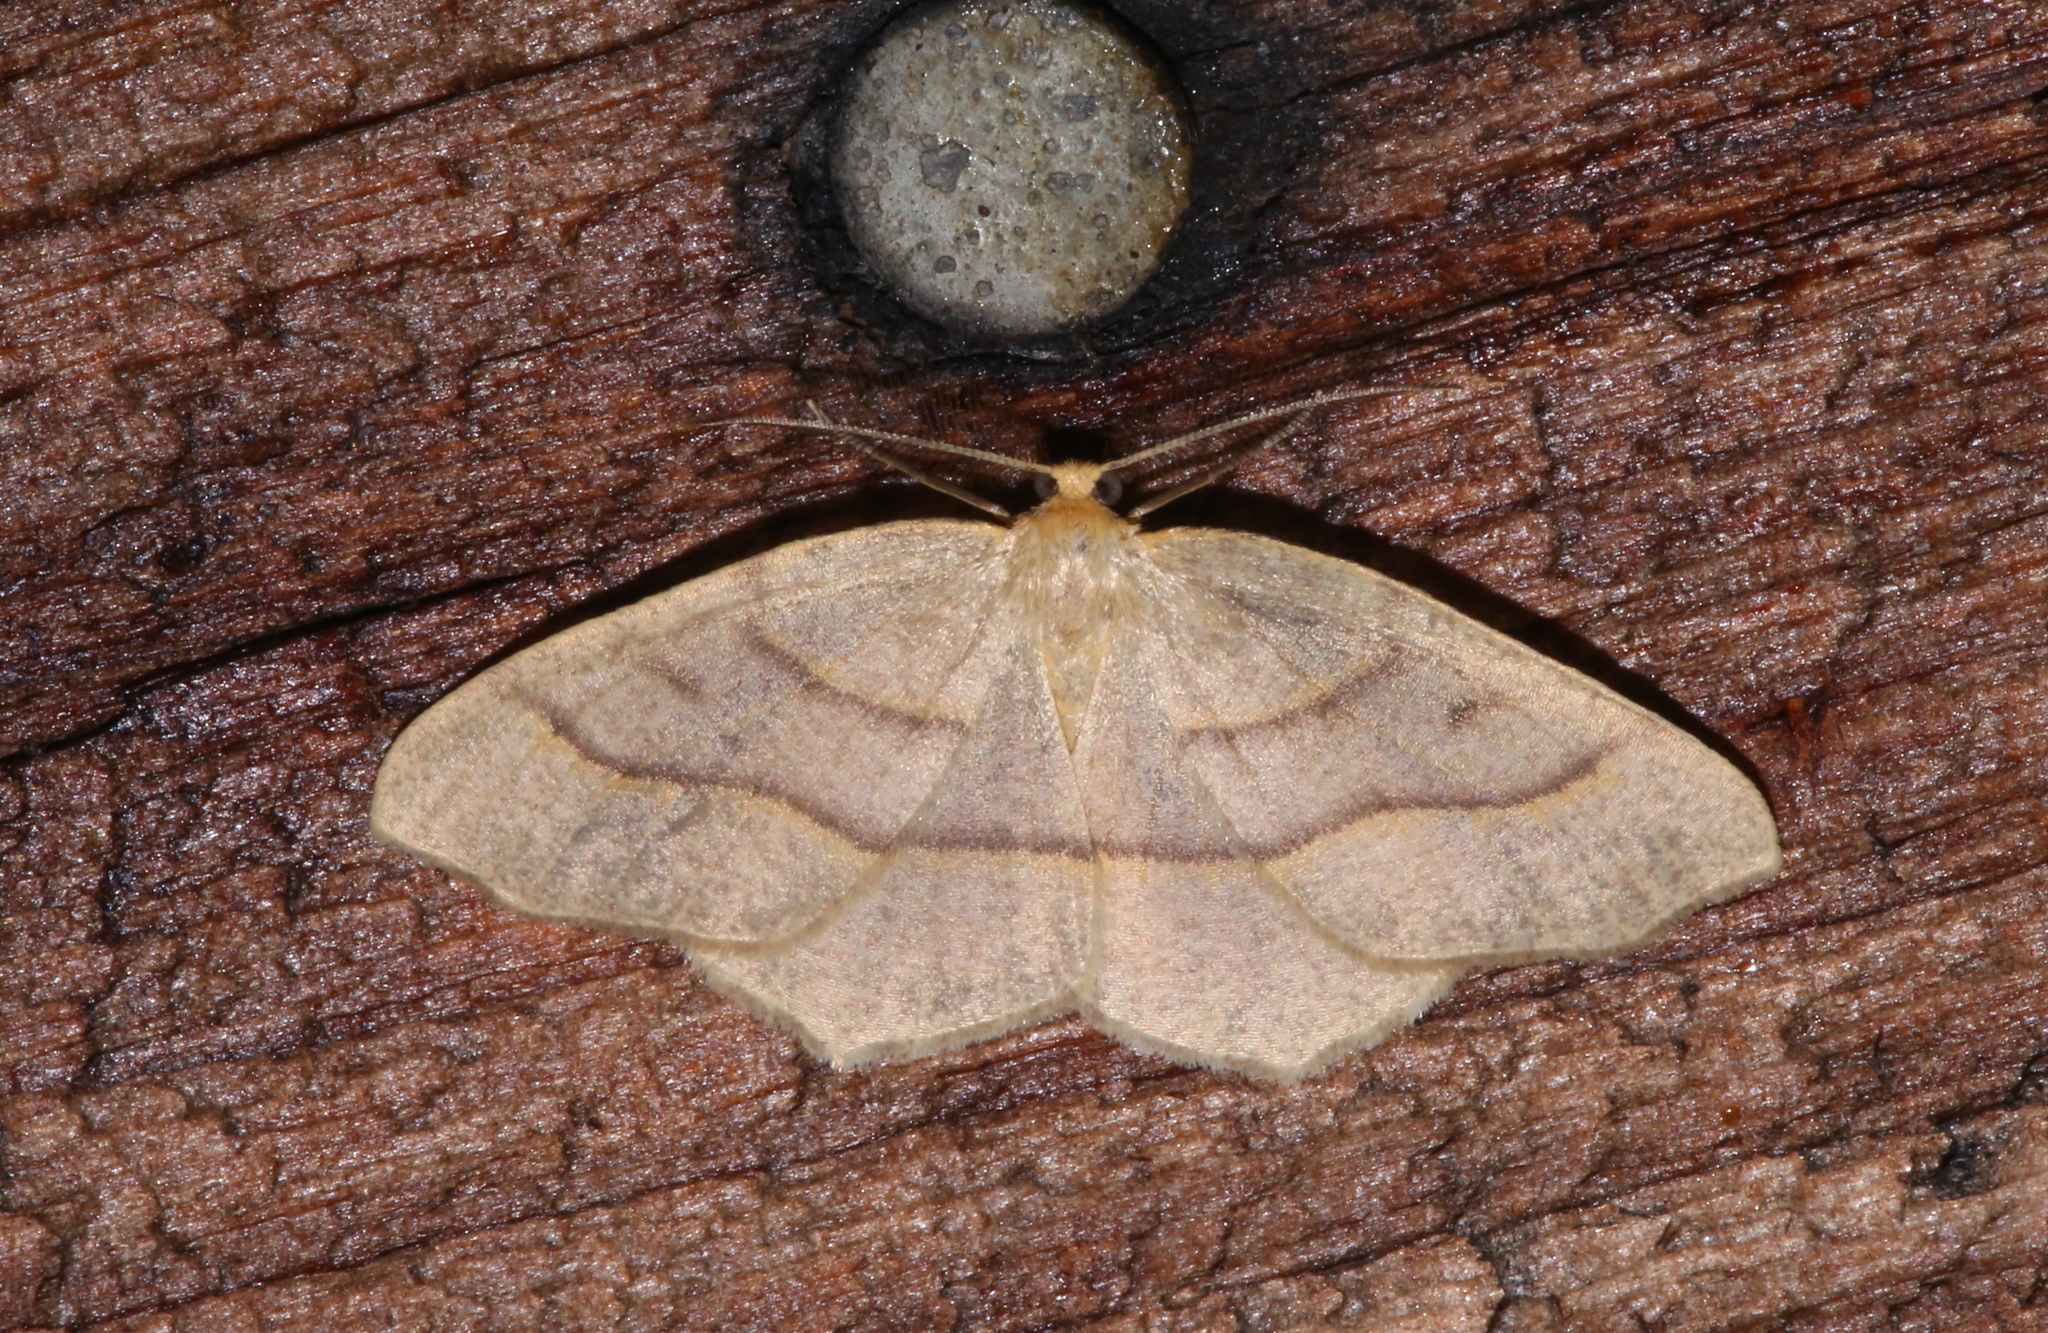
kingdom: Animalia
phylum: Arthropoda
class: Insecta
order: Lepidoptera
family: Geometridae
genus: Lambdina
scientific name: Lambdina fiscellaria
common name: Hemlock looper
